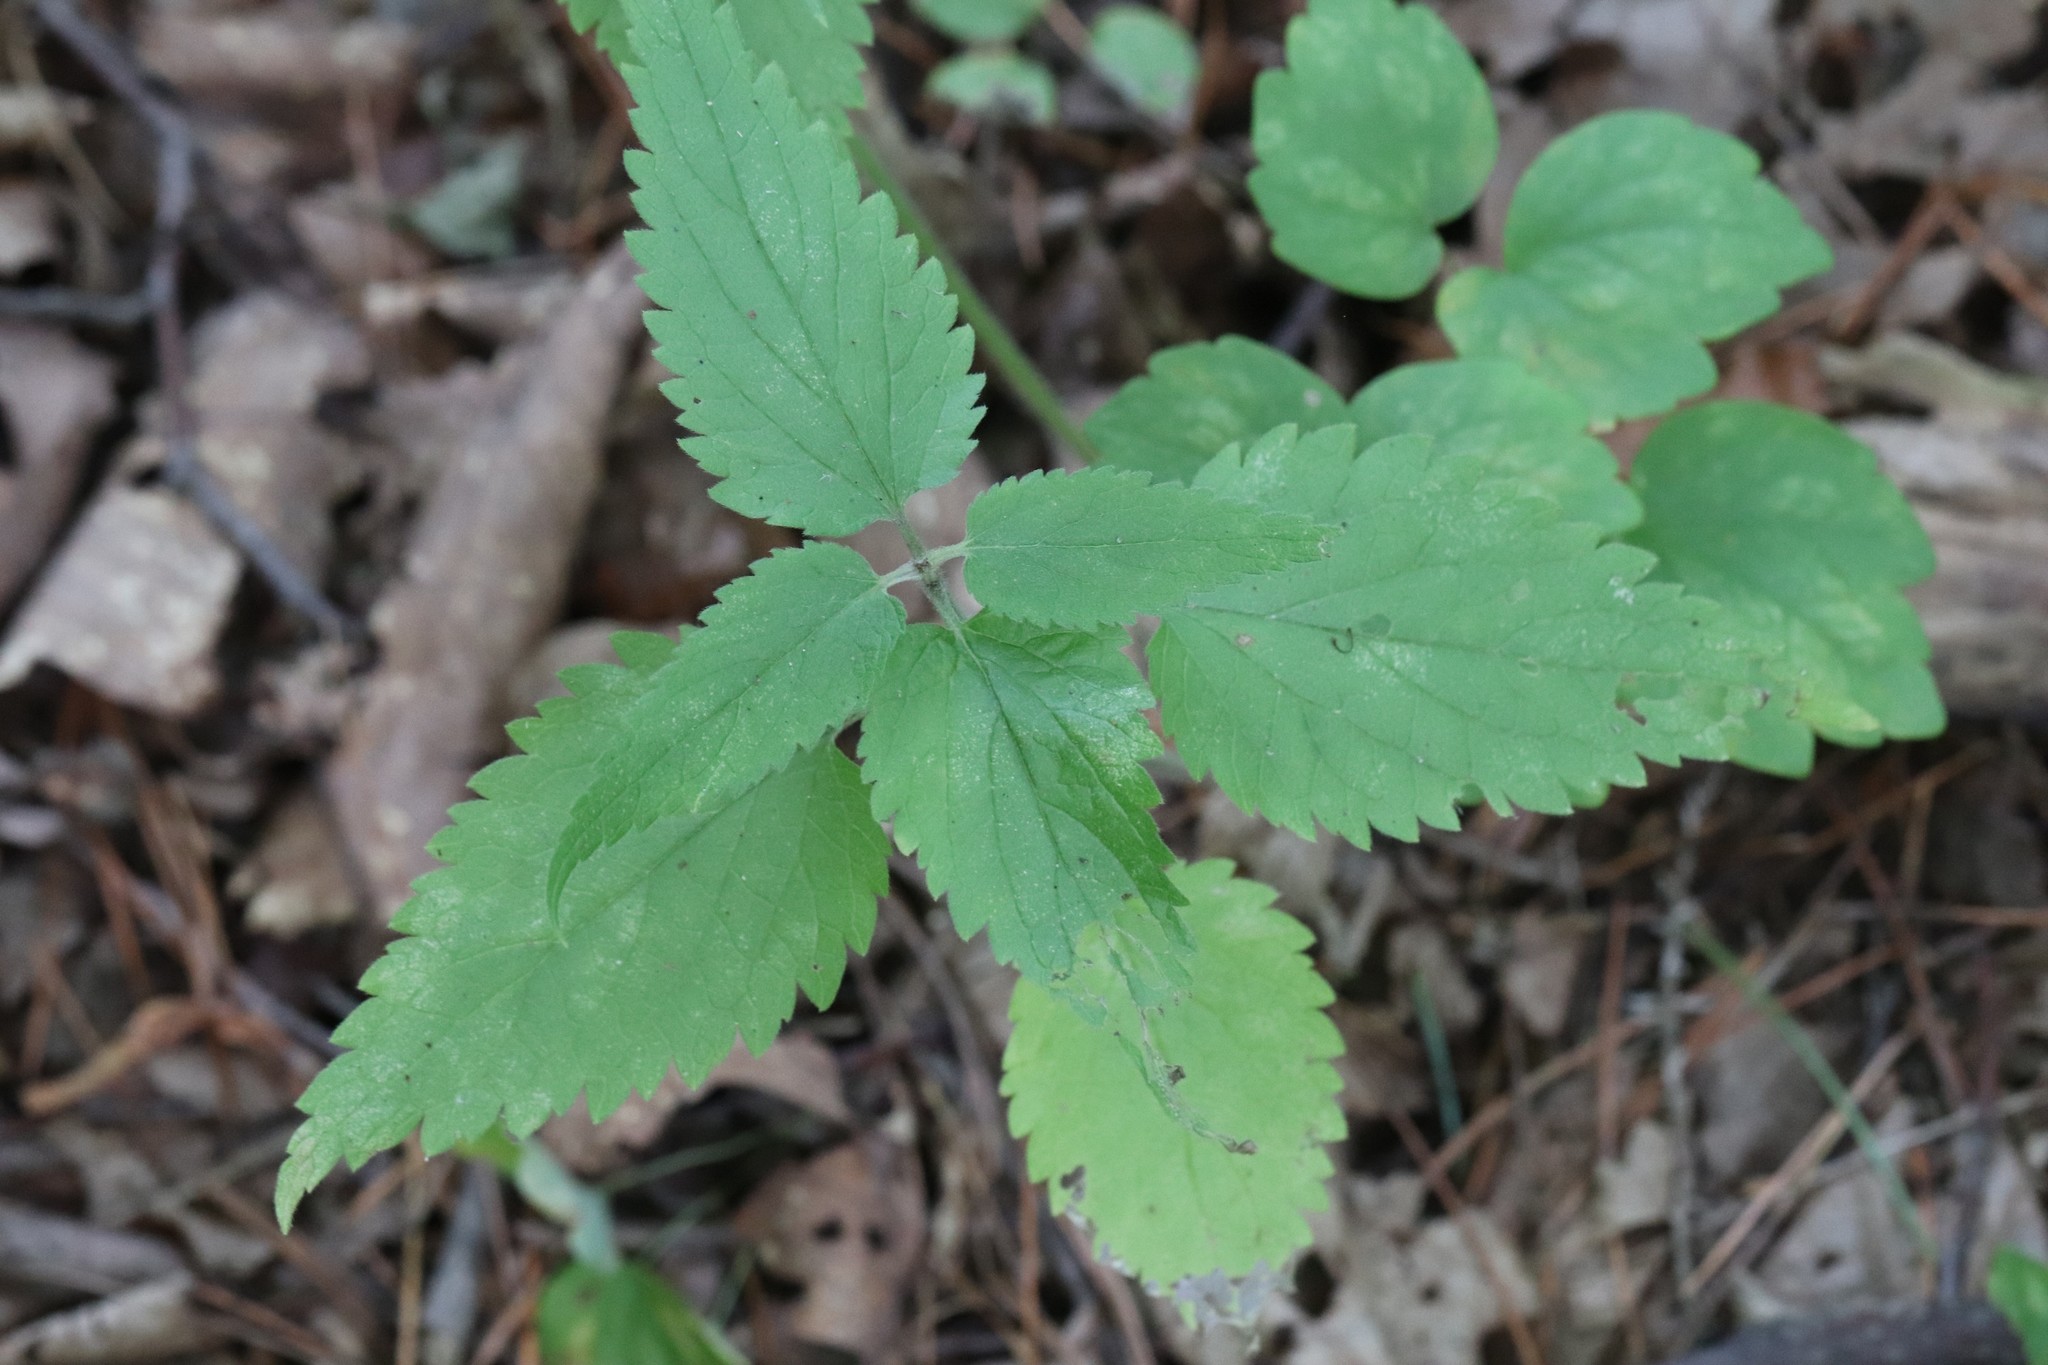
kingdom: Plantae
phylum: Tracheophyta
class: Magnoliopsida
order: Lamiales
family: Lamiaceae
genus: Lamium
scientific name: Lamium album
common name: White dead-nettle
